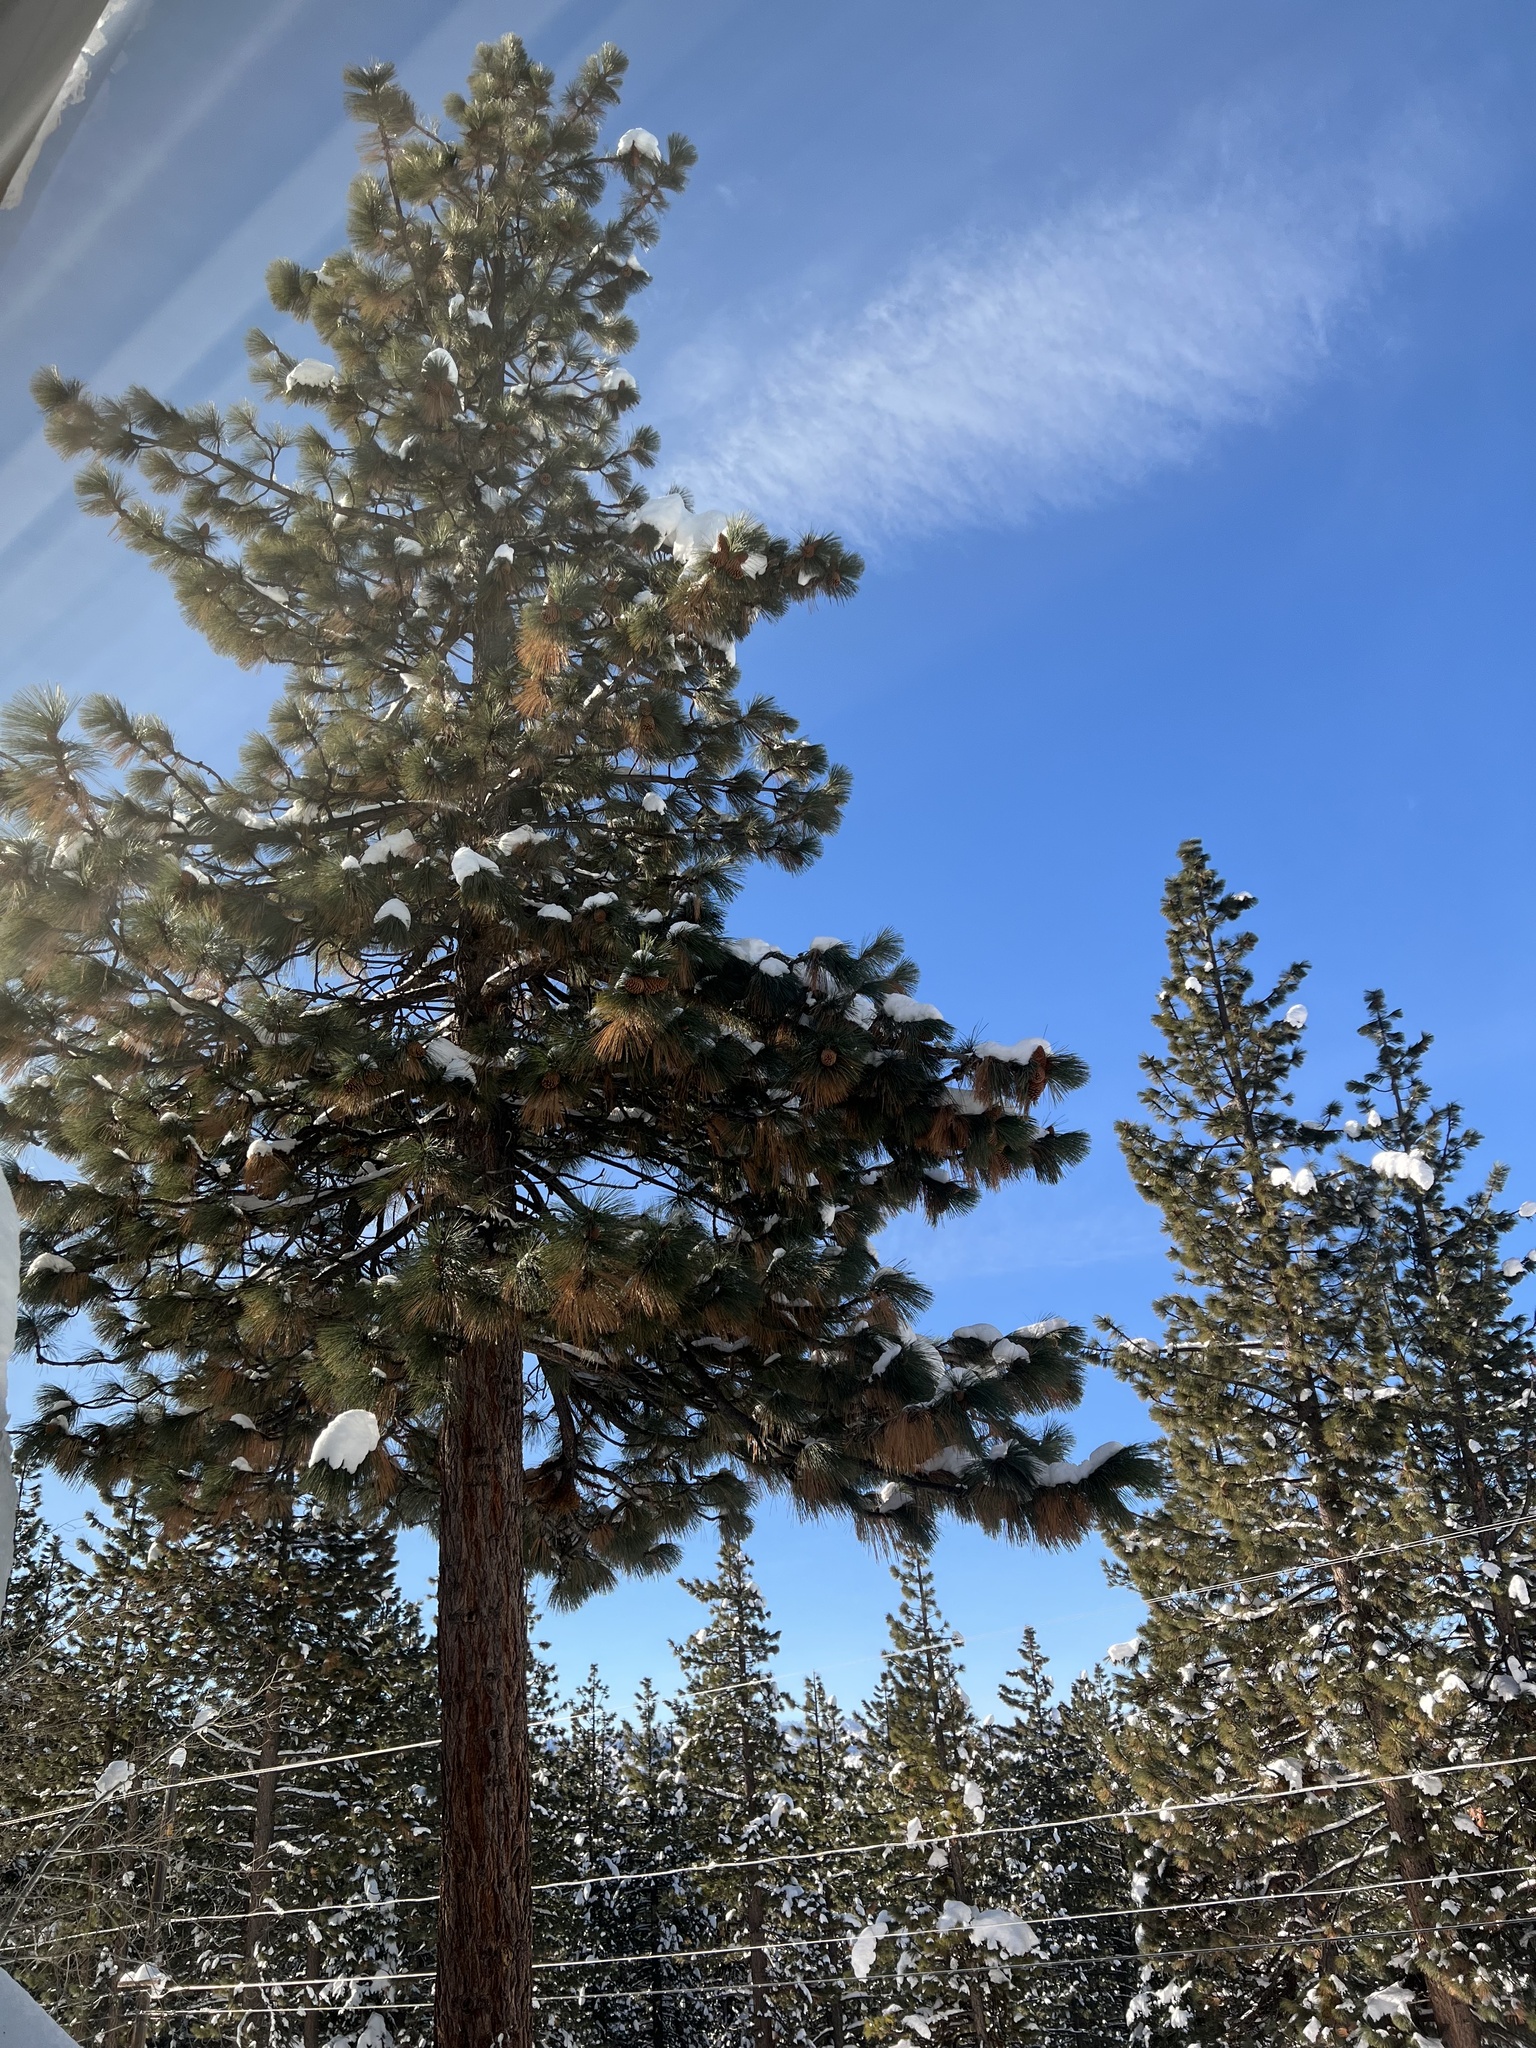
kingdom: Plantae
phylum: Tracheophyta
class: Pinopsida
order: Pinales
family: Pinaceae
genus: Pinus
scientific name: Pinus jeffreyi
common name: Jeffrey pine
